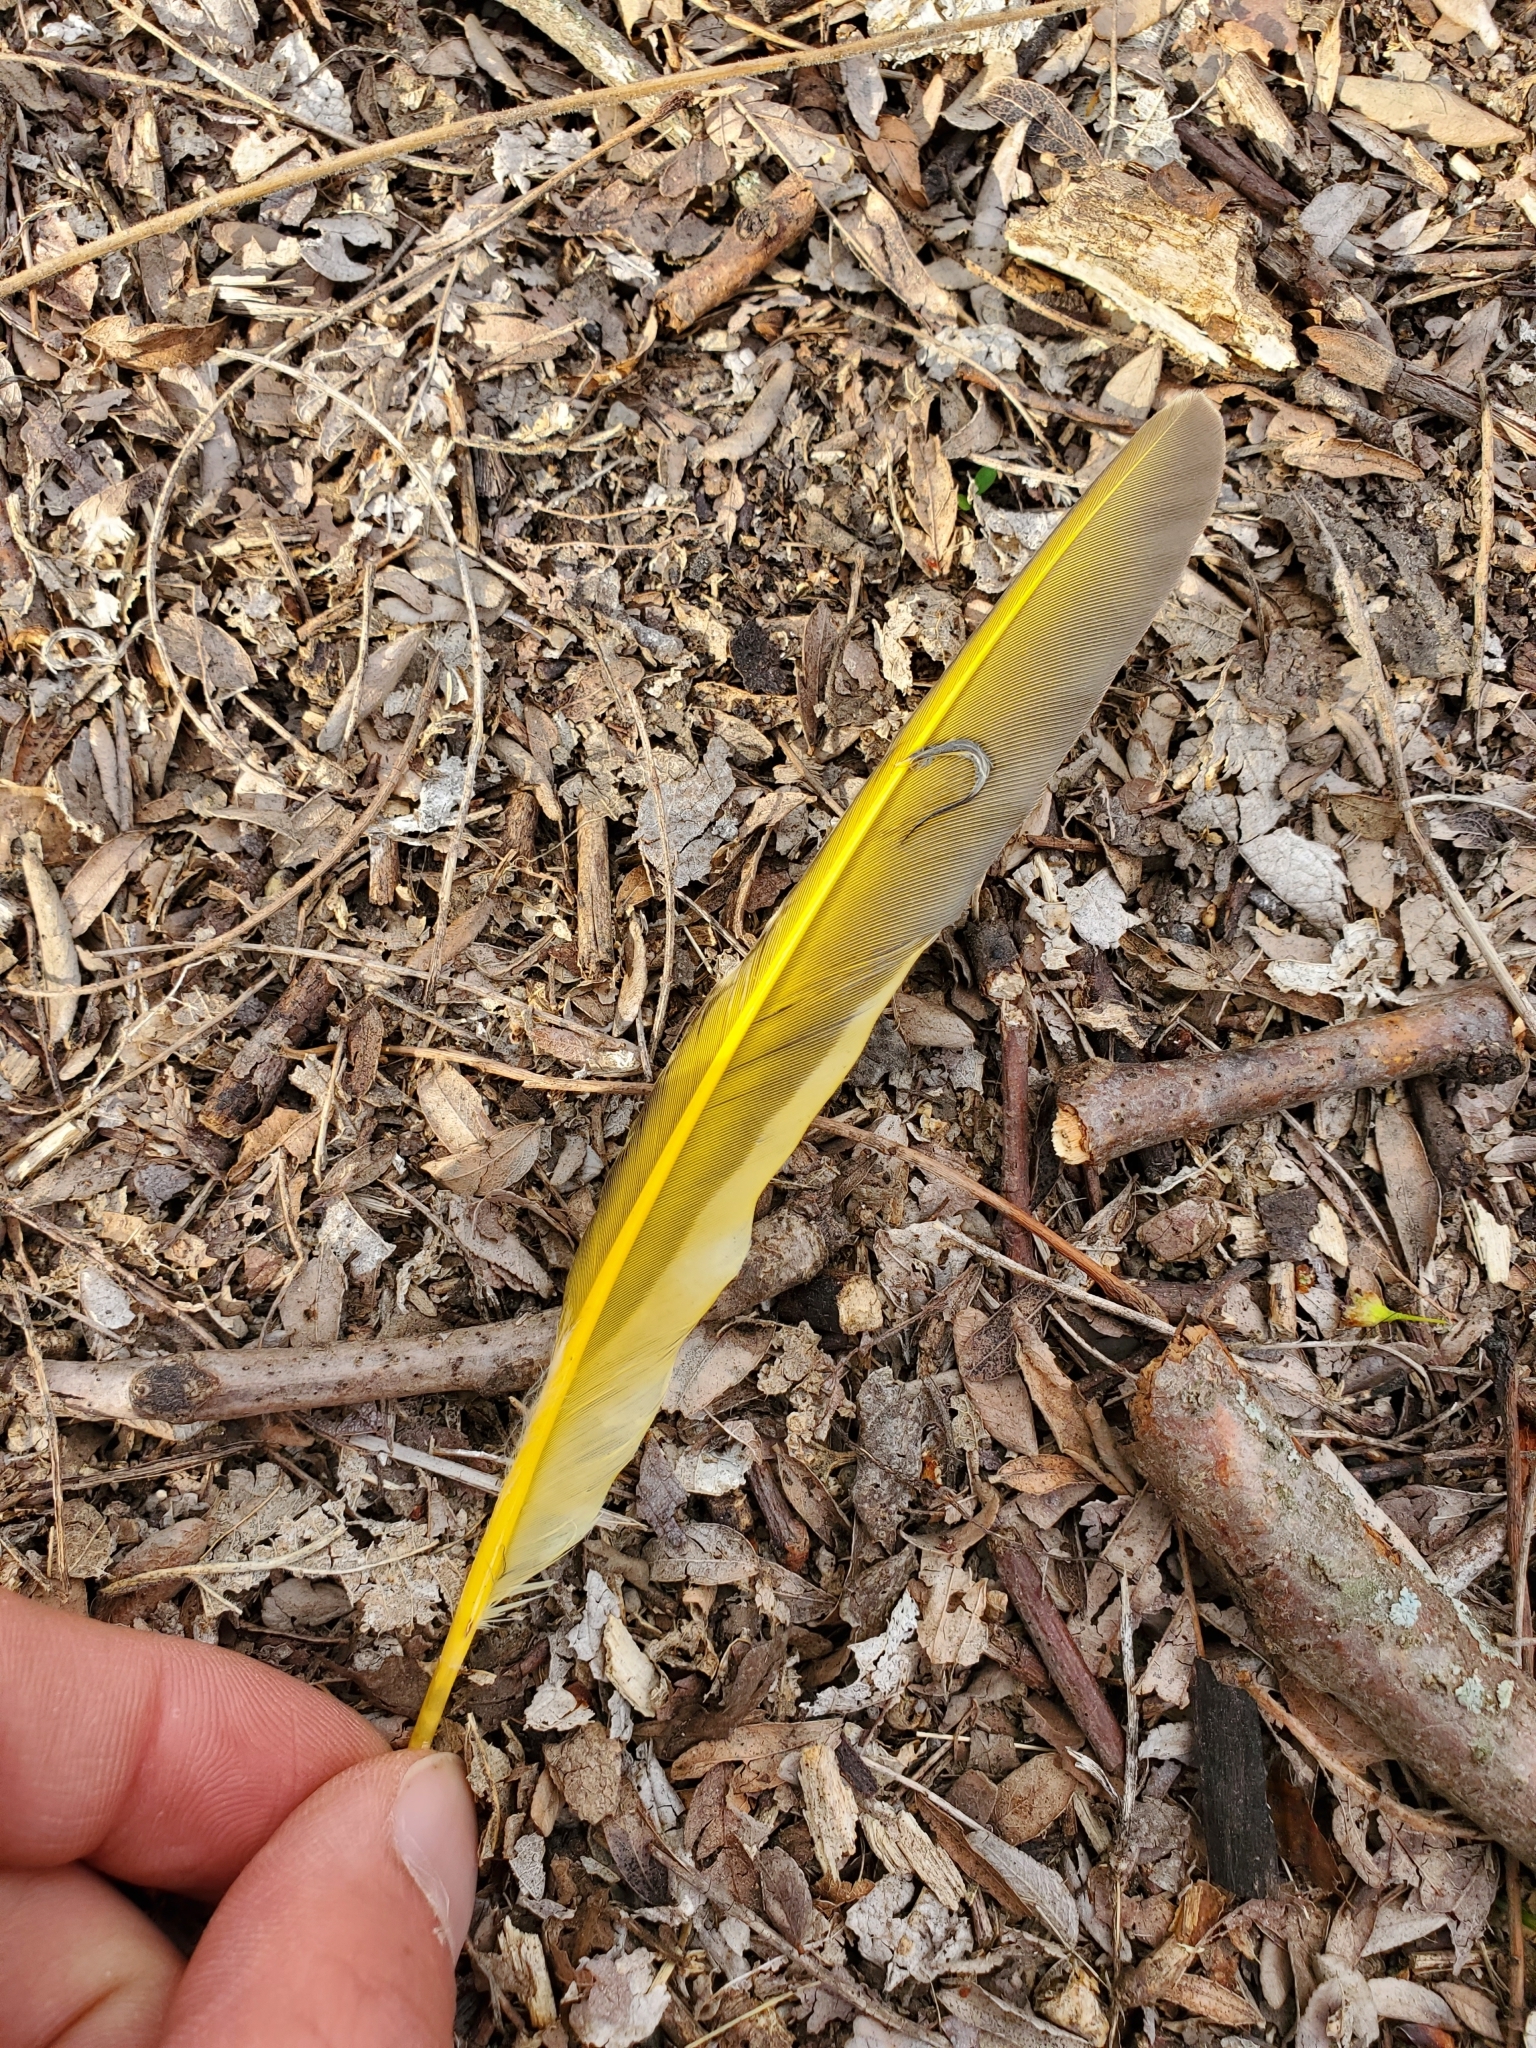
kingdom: Animalia
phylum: Chordata
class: Aves
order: Piciformes
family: Picidae
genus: Colaptes
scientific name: Colaptes auratus
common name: Northern flicker
